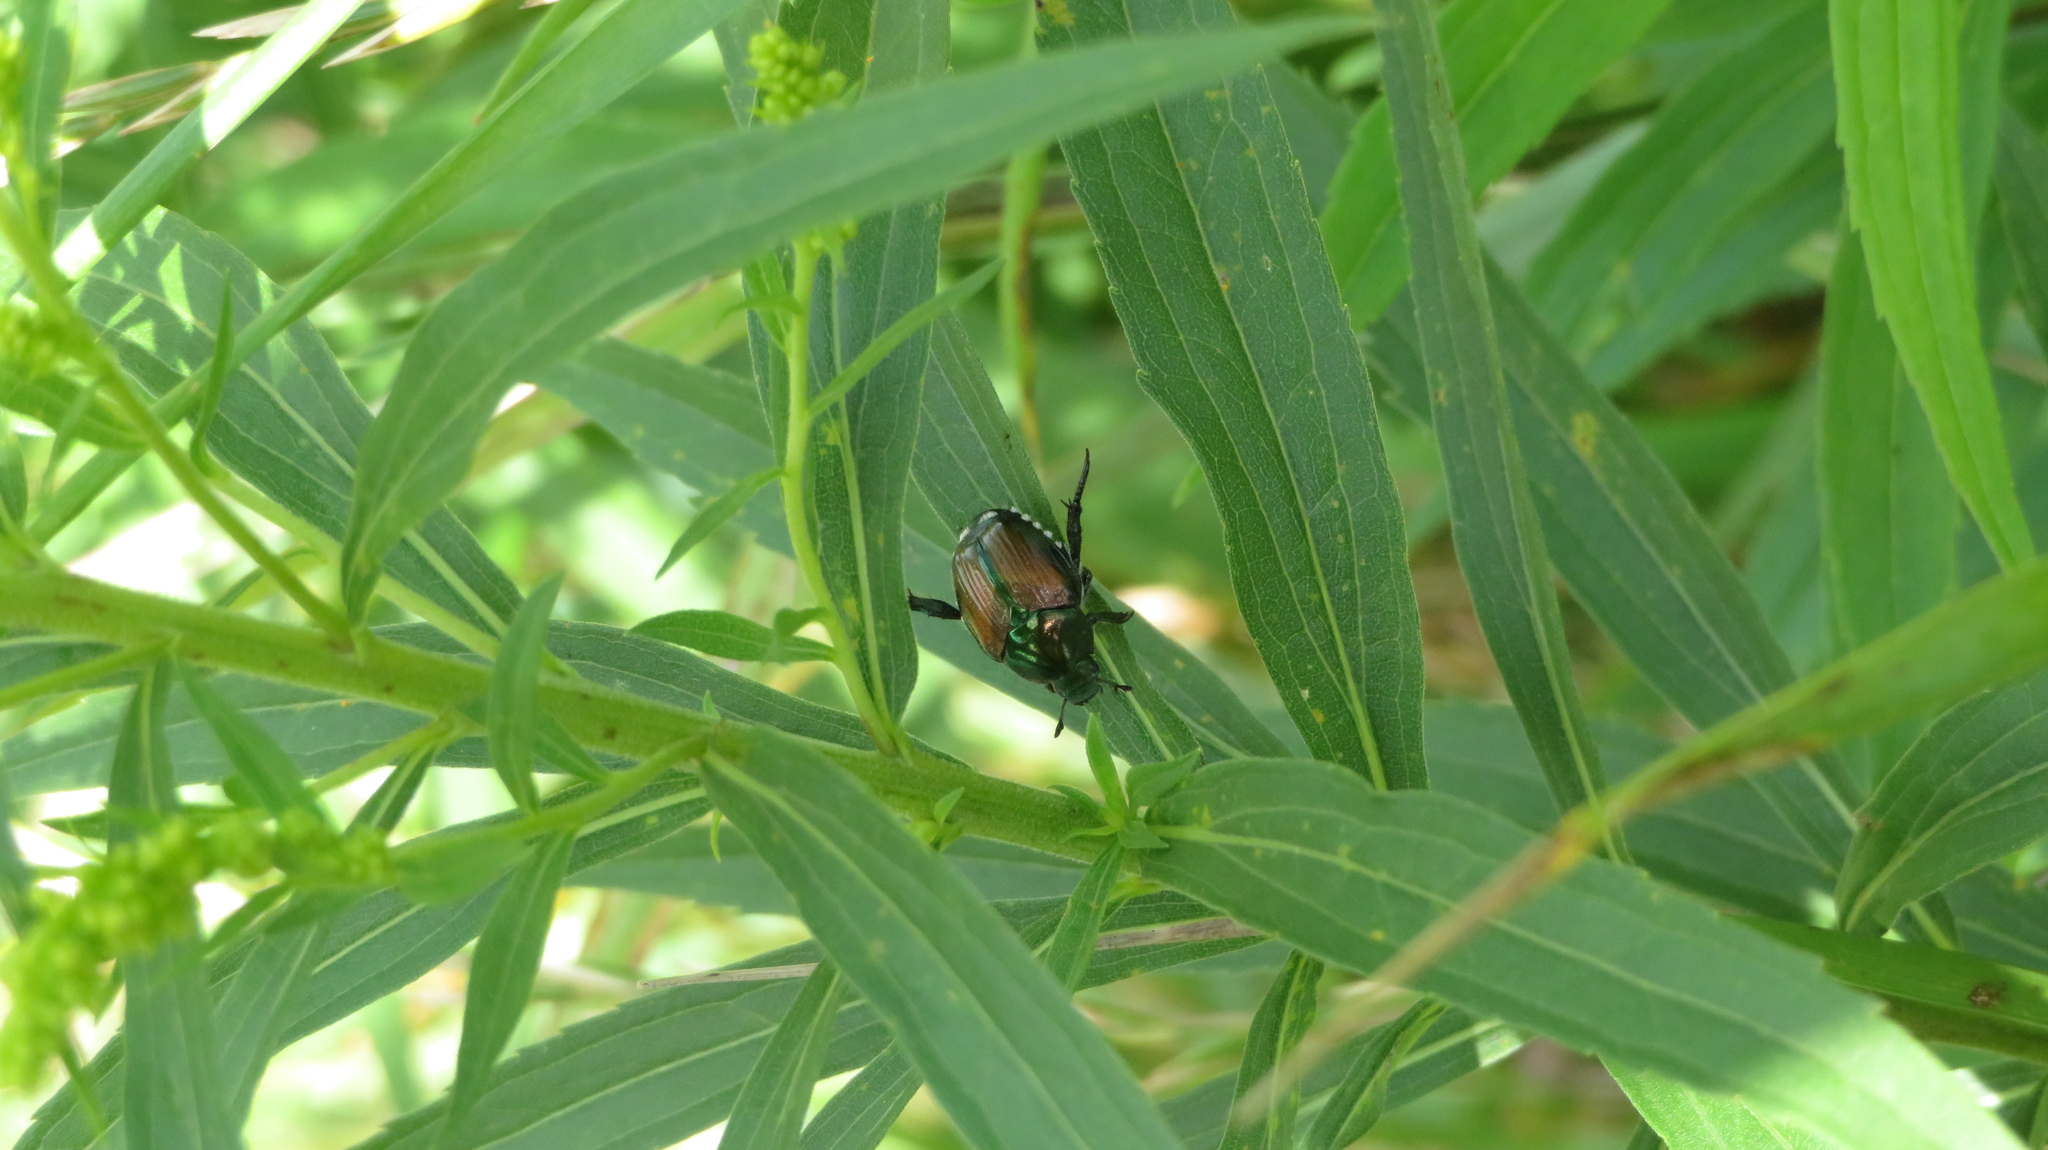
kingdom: Animalia
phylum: Arthropoda
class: Insecta
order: Coleoptera
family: Scarabaeidae
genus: Popillia
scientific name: Popillia japonica
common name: Japanese beetle
